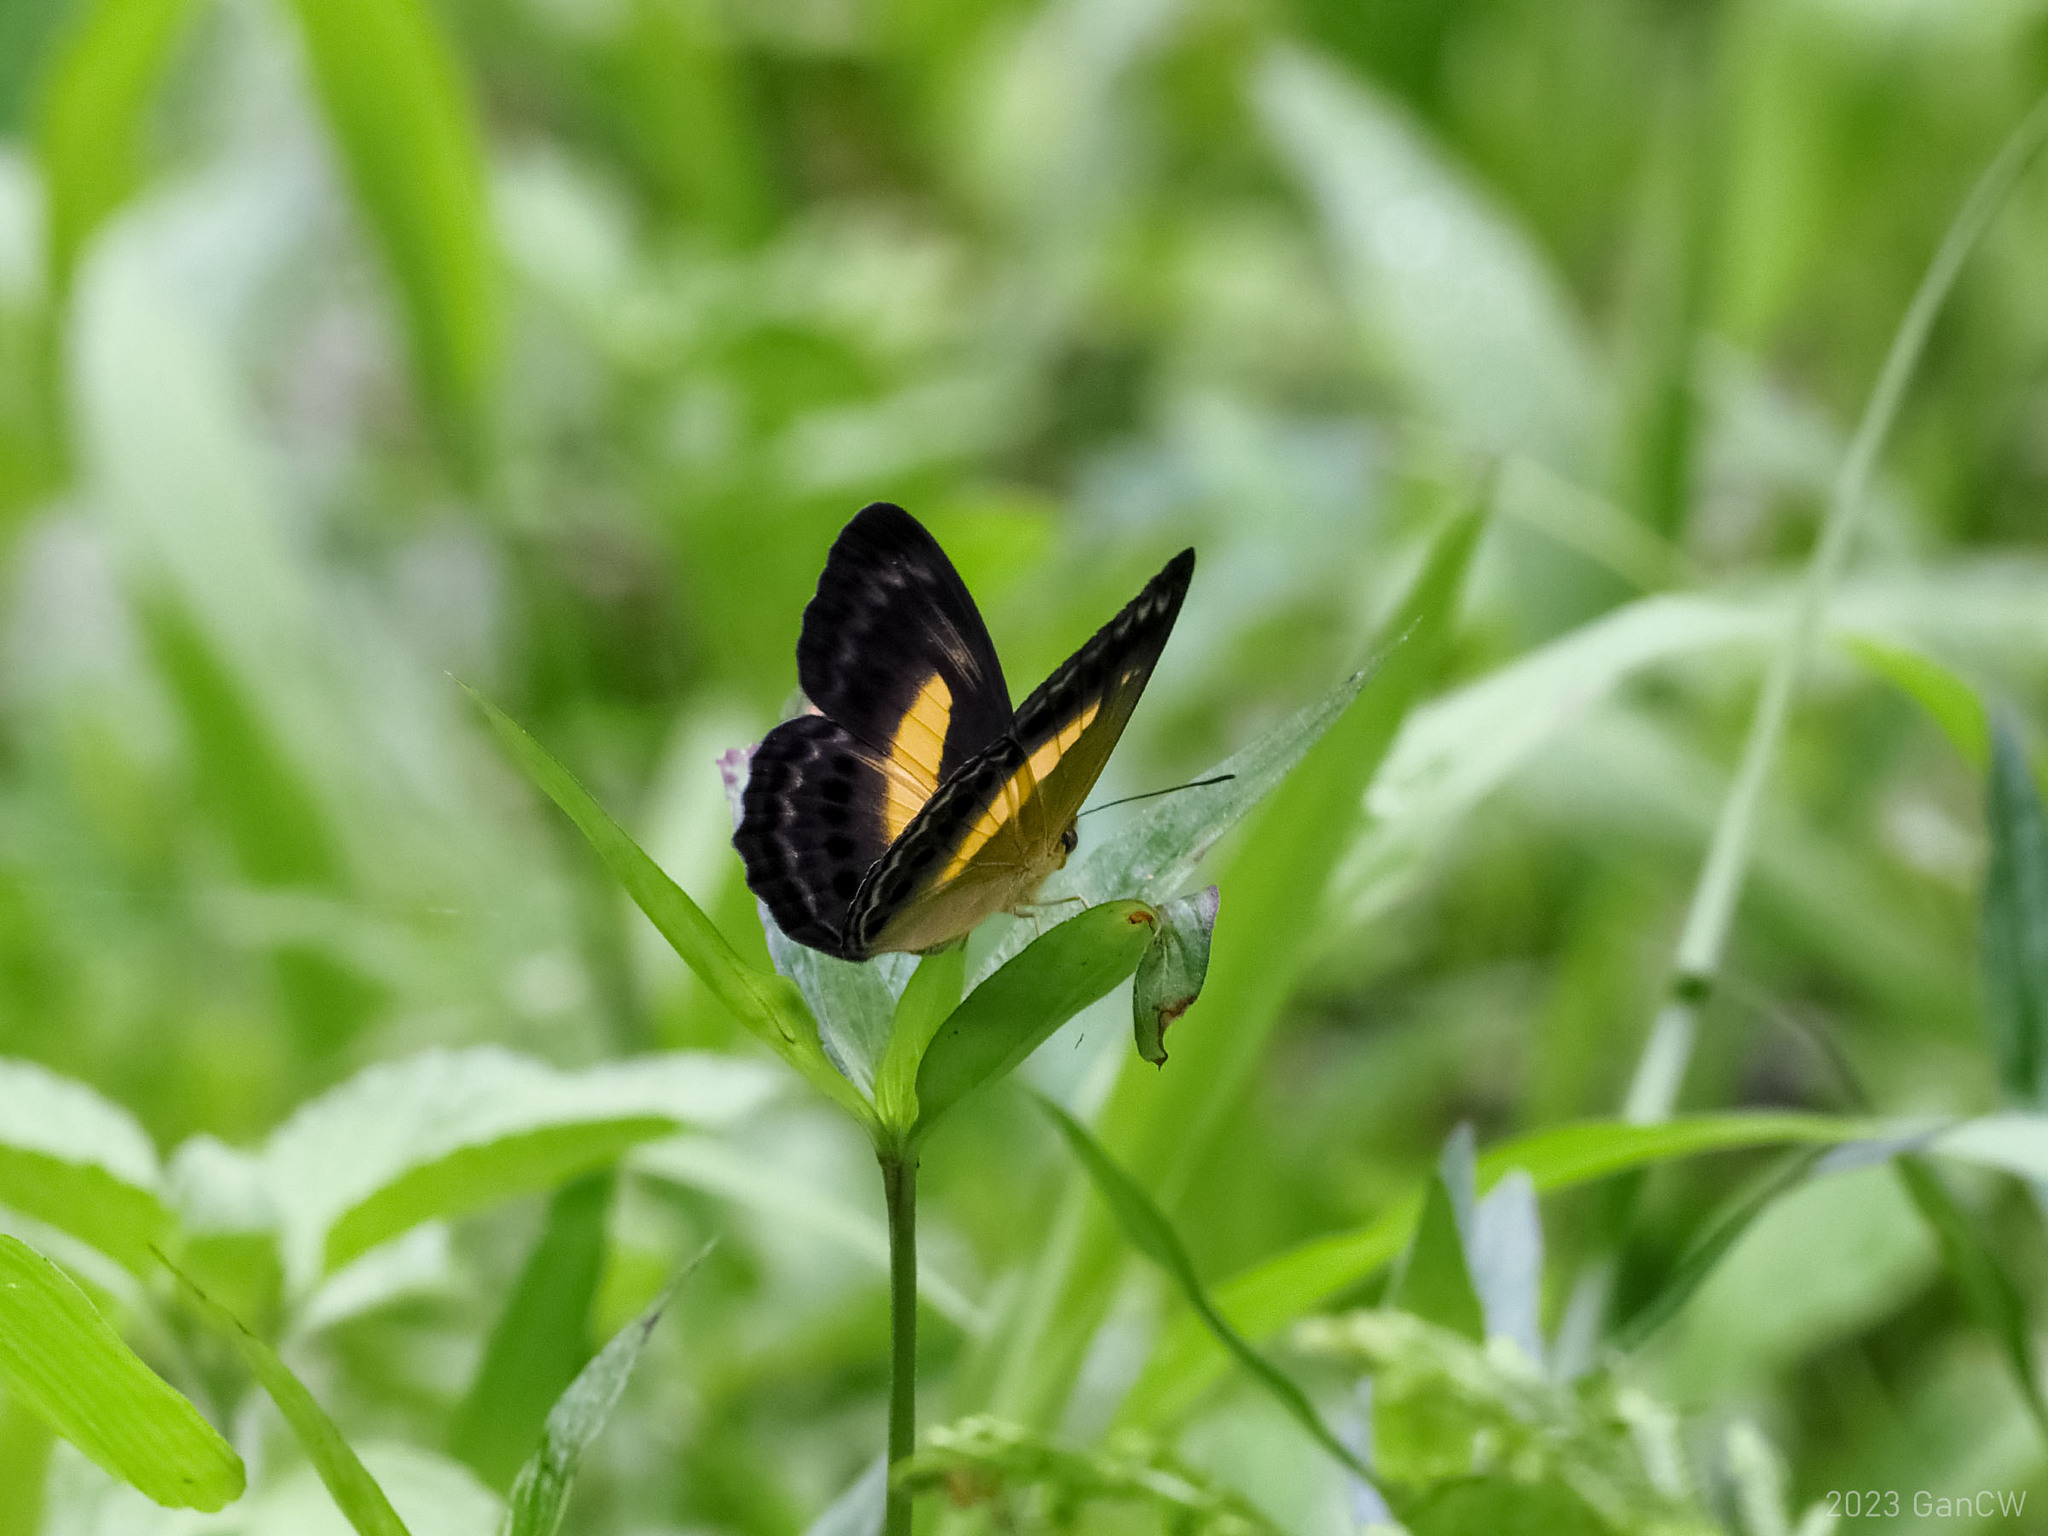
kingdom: Animalia
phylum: Arthropoda
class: Insecta
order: Lepidoptera
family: Nymphalidae
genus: Algia
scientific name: Algia
